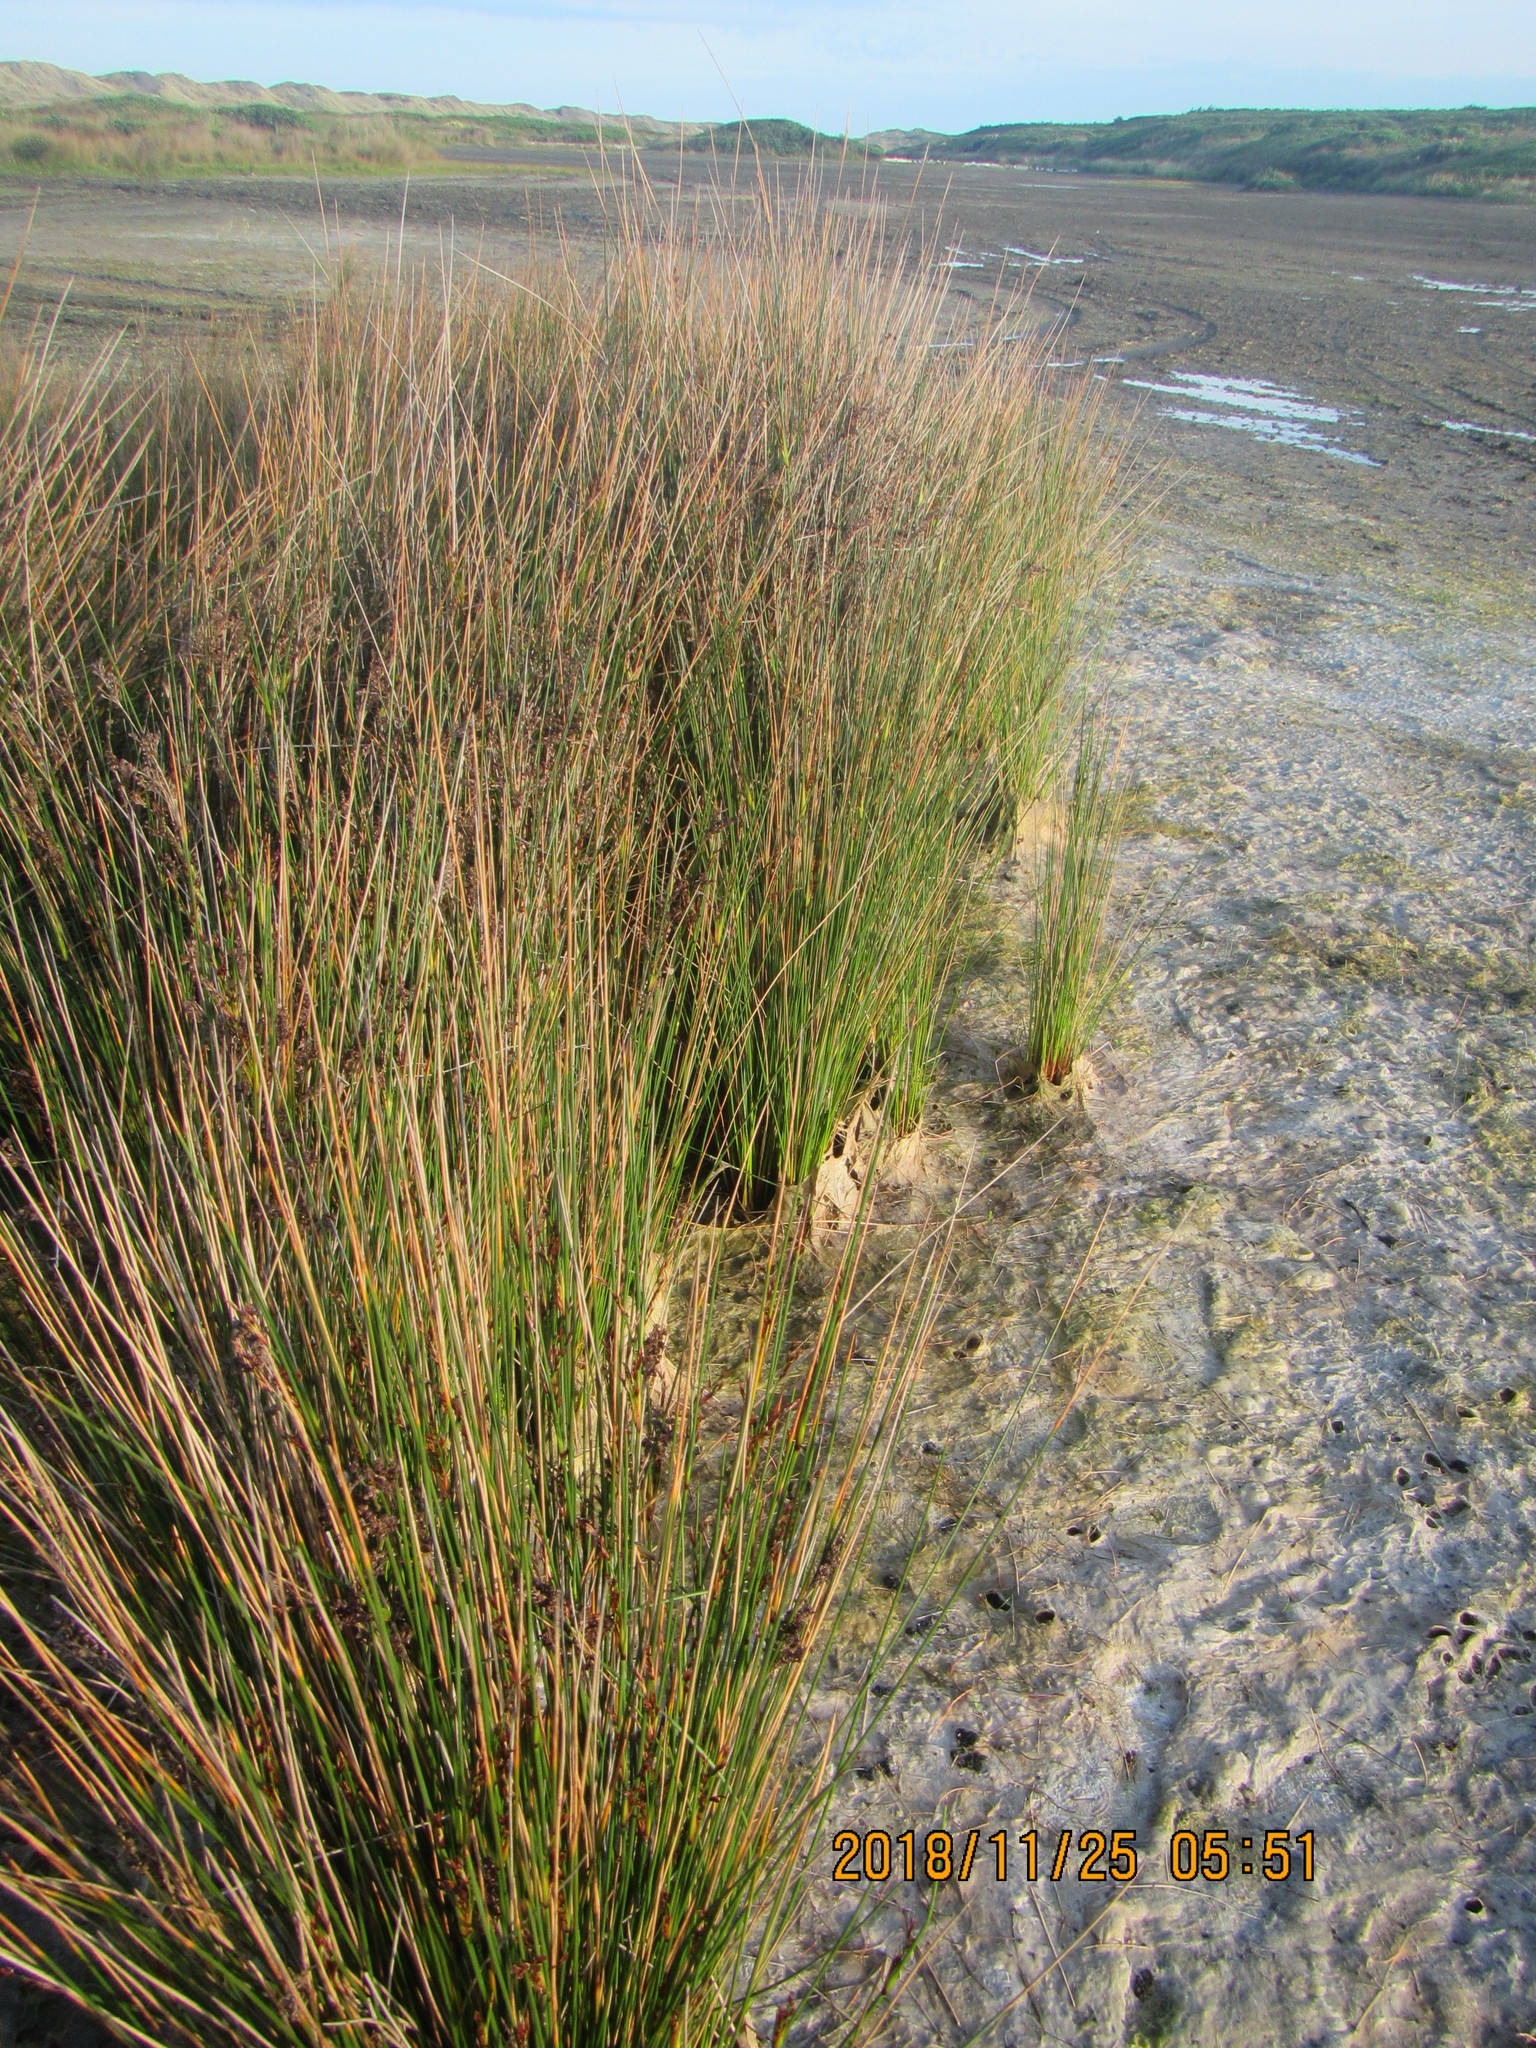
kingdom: Plantae
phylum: Tracheophyta
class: Liliopsida
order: Poales
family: Juncaceae
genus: Juncus
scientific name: Juncus kraussii
